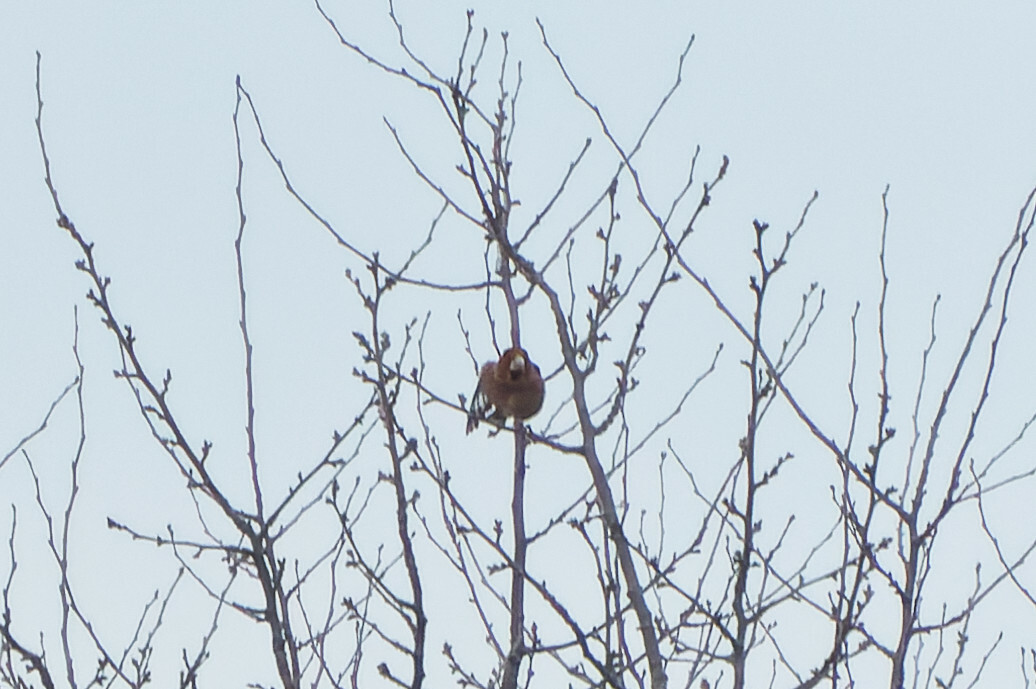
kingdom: Animalia
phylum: Chordata
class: Aves
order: Passeriformes
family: Fringillidae
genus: Coccothraustes
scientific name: Coccothraustes coccothraustes
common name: Hawfinch
